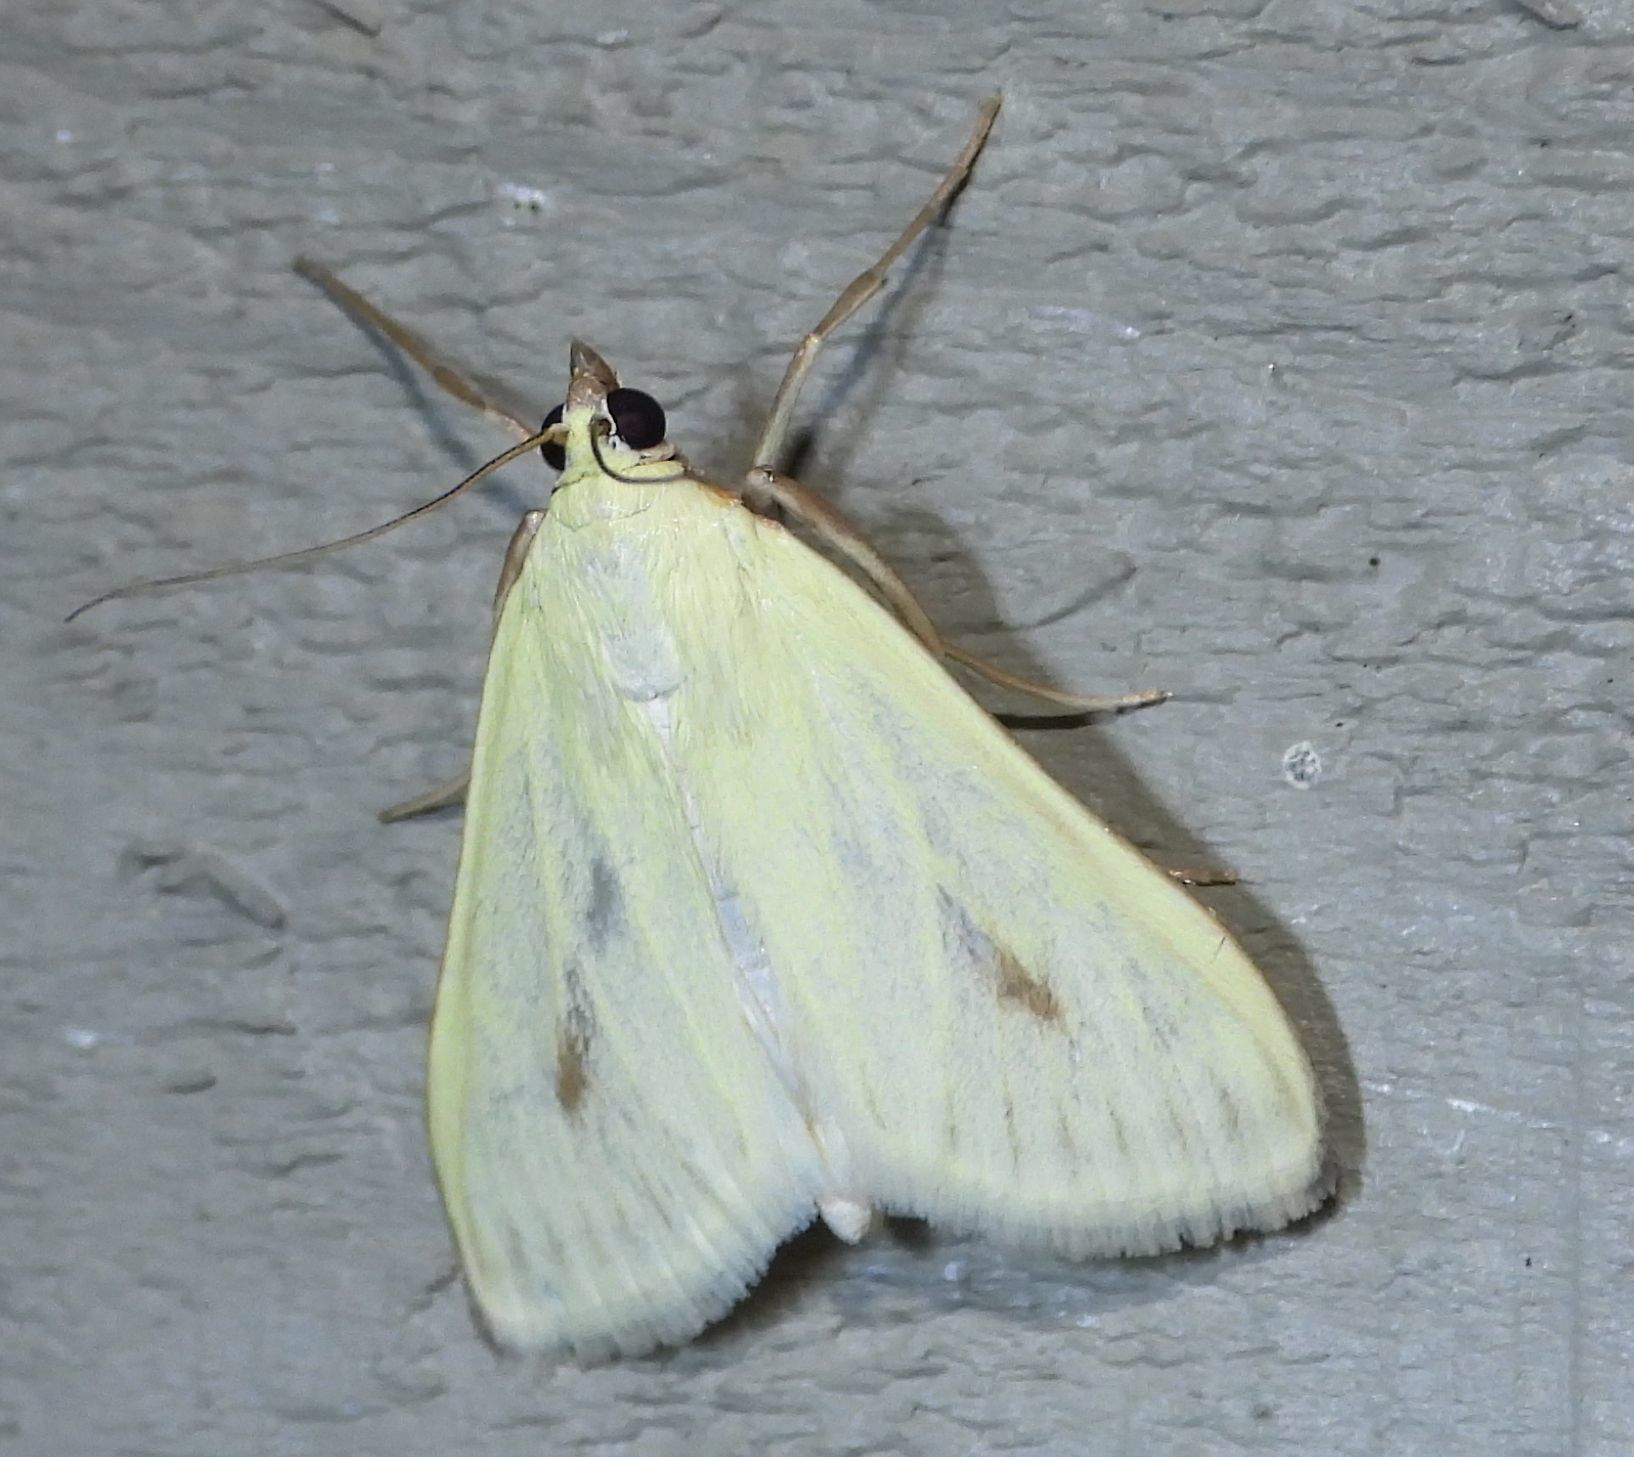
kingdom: Animalia
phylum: Arthropoda
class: Insecta
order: Lepidoptera
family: Crambidae
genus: Sitochroa
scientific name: Sitochroa palealis
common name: Greenish-yellow sitochroa moth
